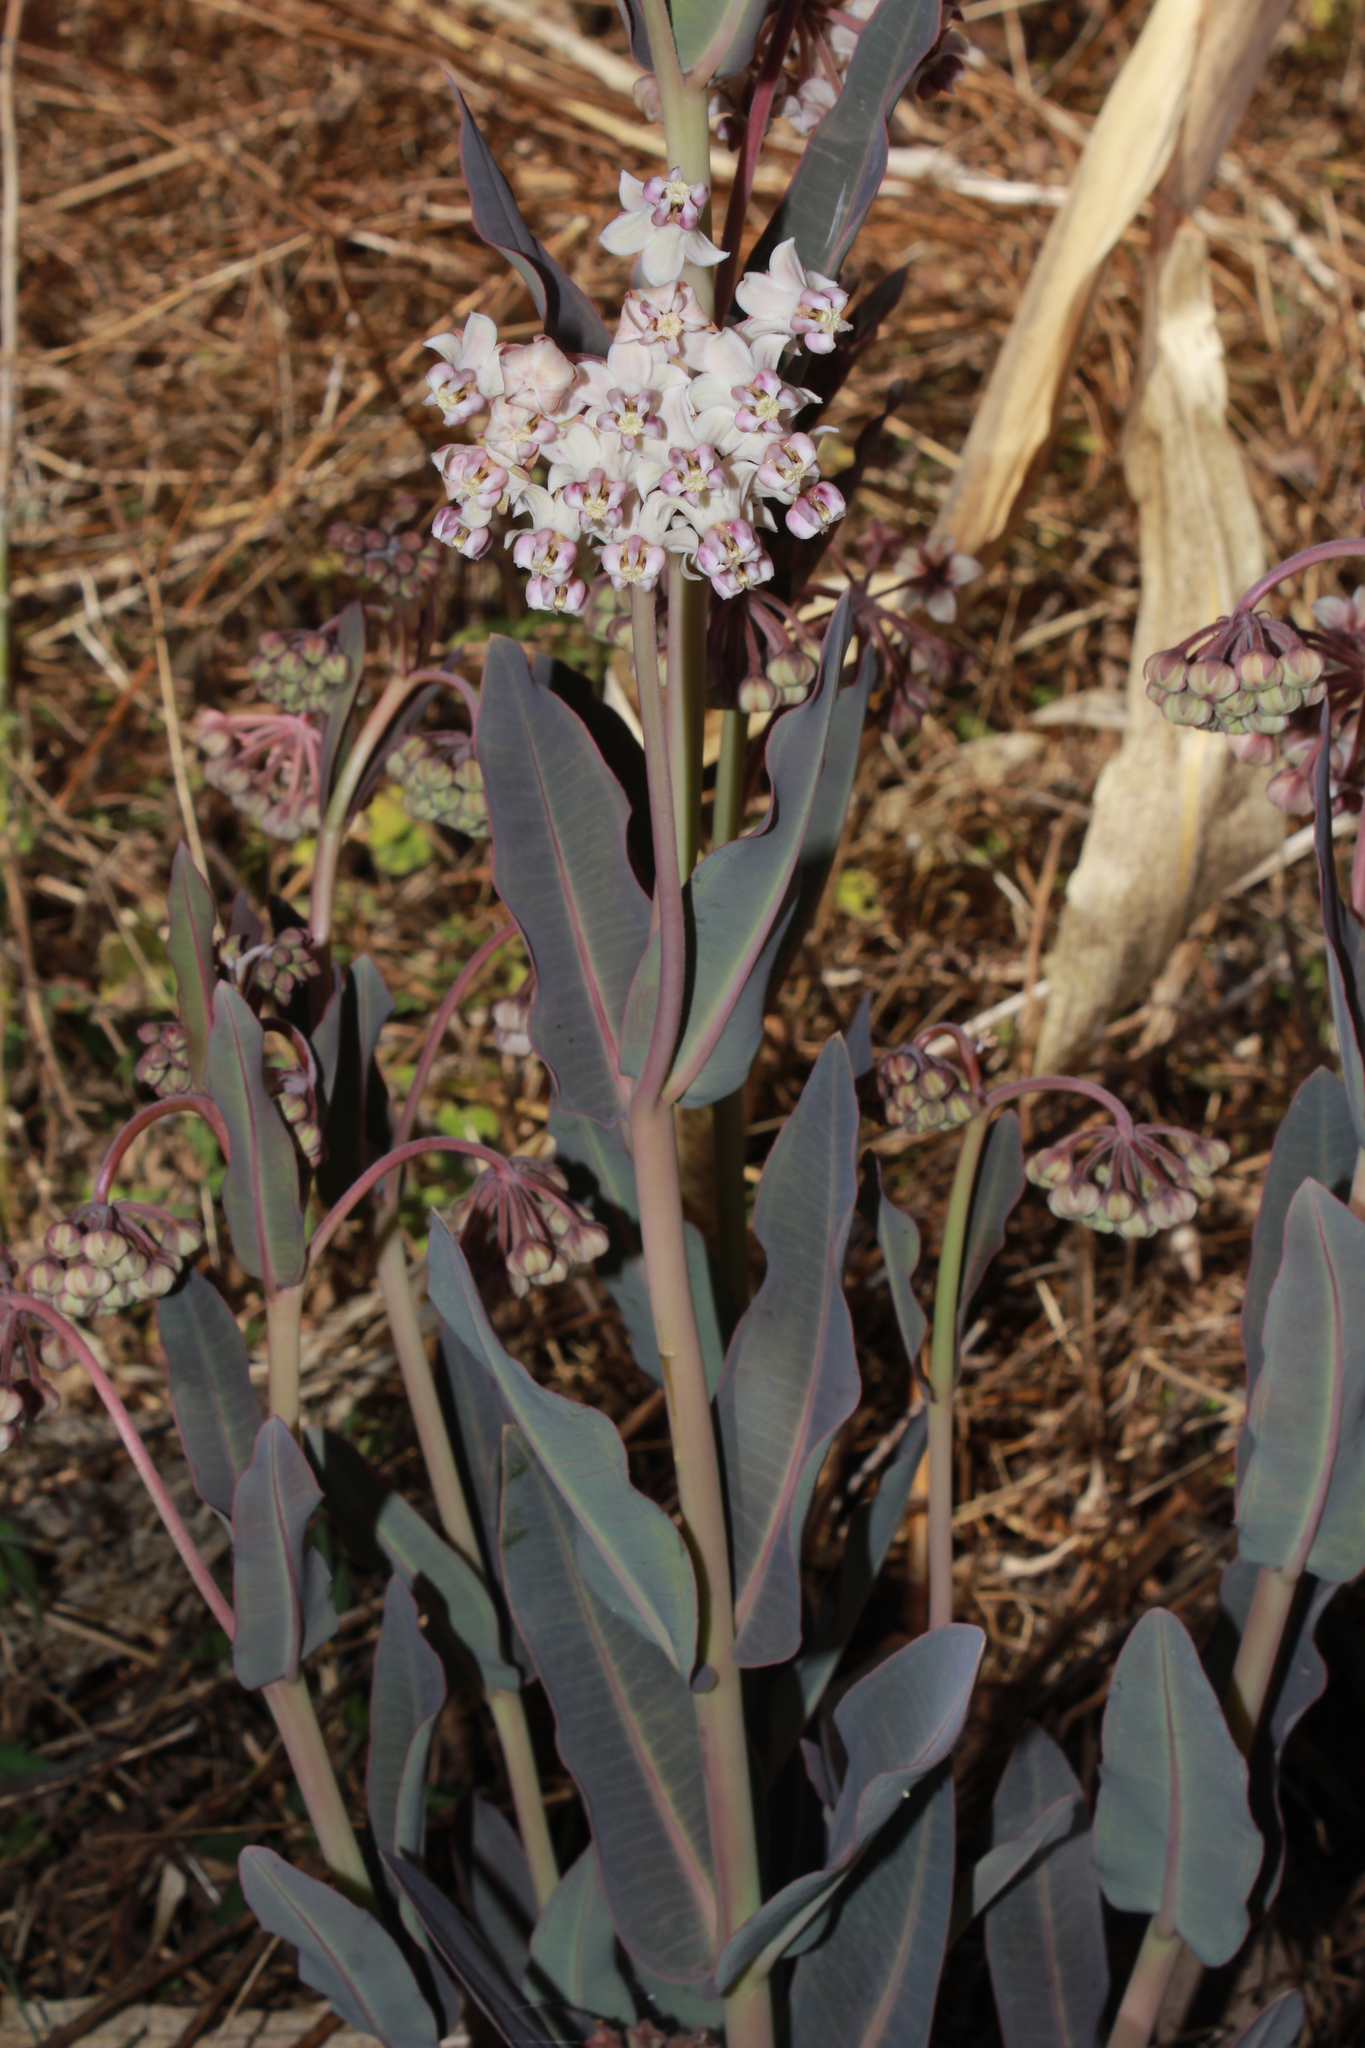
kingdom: Plantae
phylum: Tracheophyta
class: Magnoliopsida
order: Gentianales
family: Apocynaceae
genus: Asclepias
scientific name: Asclepias graogramanii
